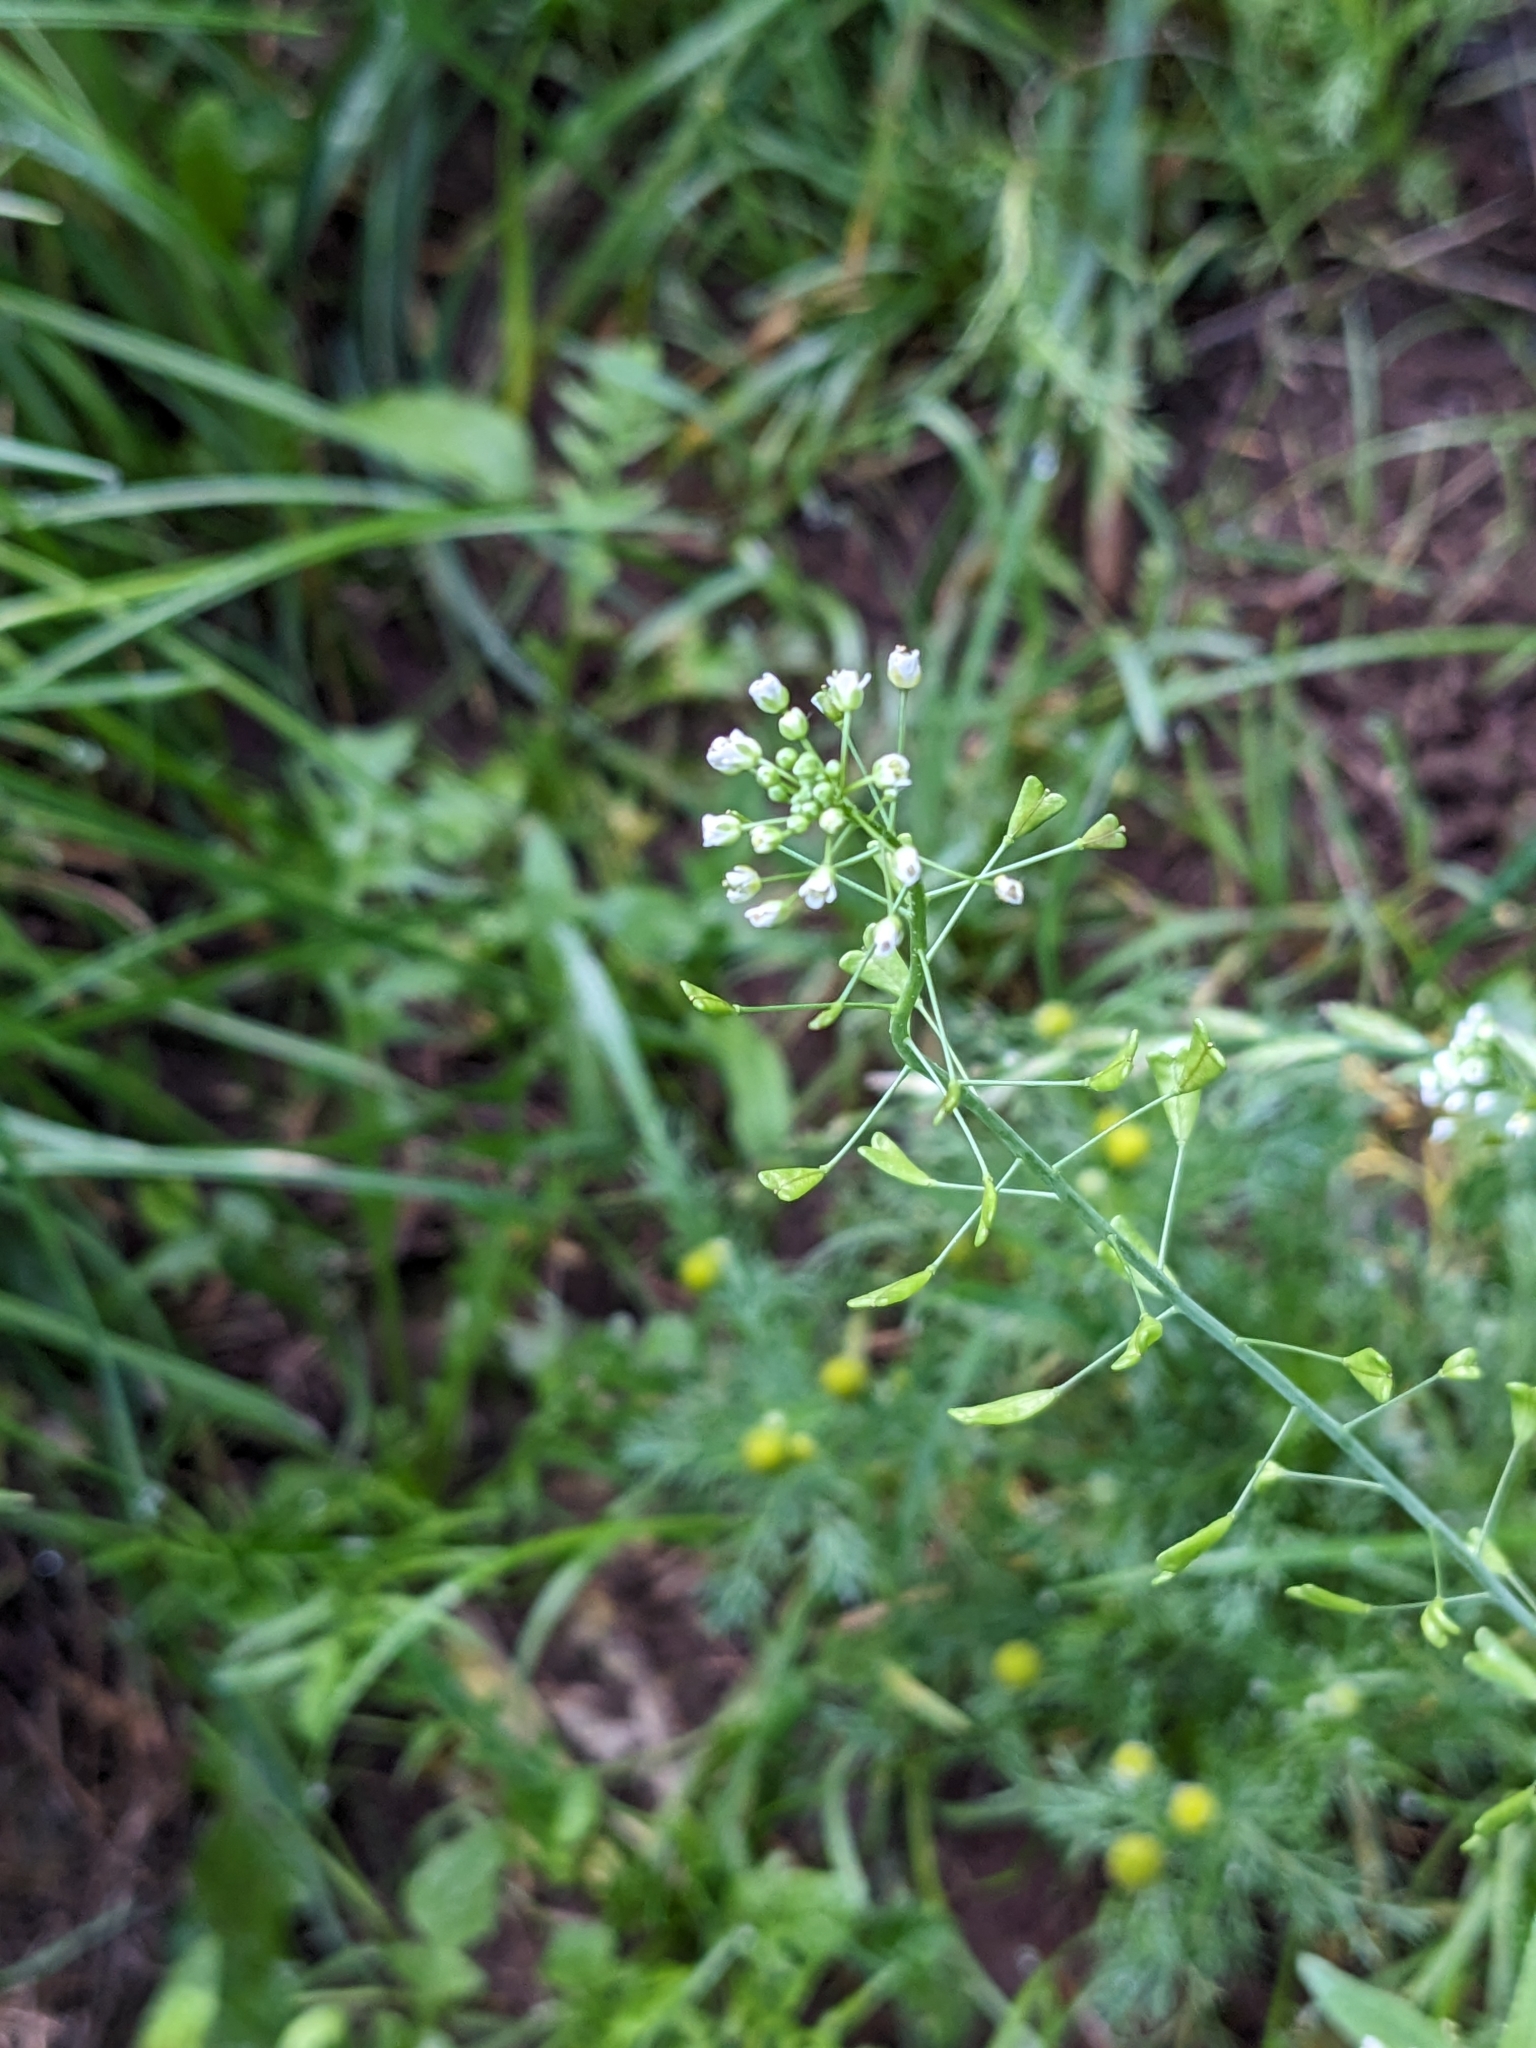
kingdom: Plantae
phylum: Tracheophyta
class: Magnoliopsida
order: Brassicales
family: Brassicaceae
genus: Capsella
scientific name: Capsella bursa-pastoris
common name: Shepherd's purse
